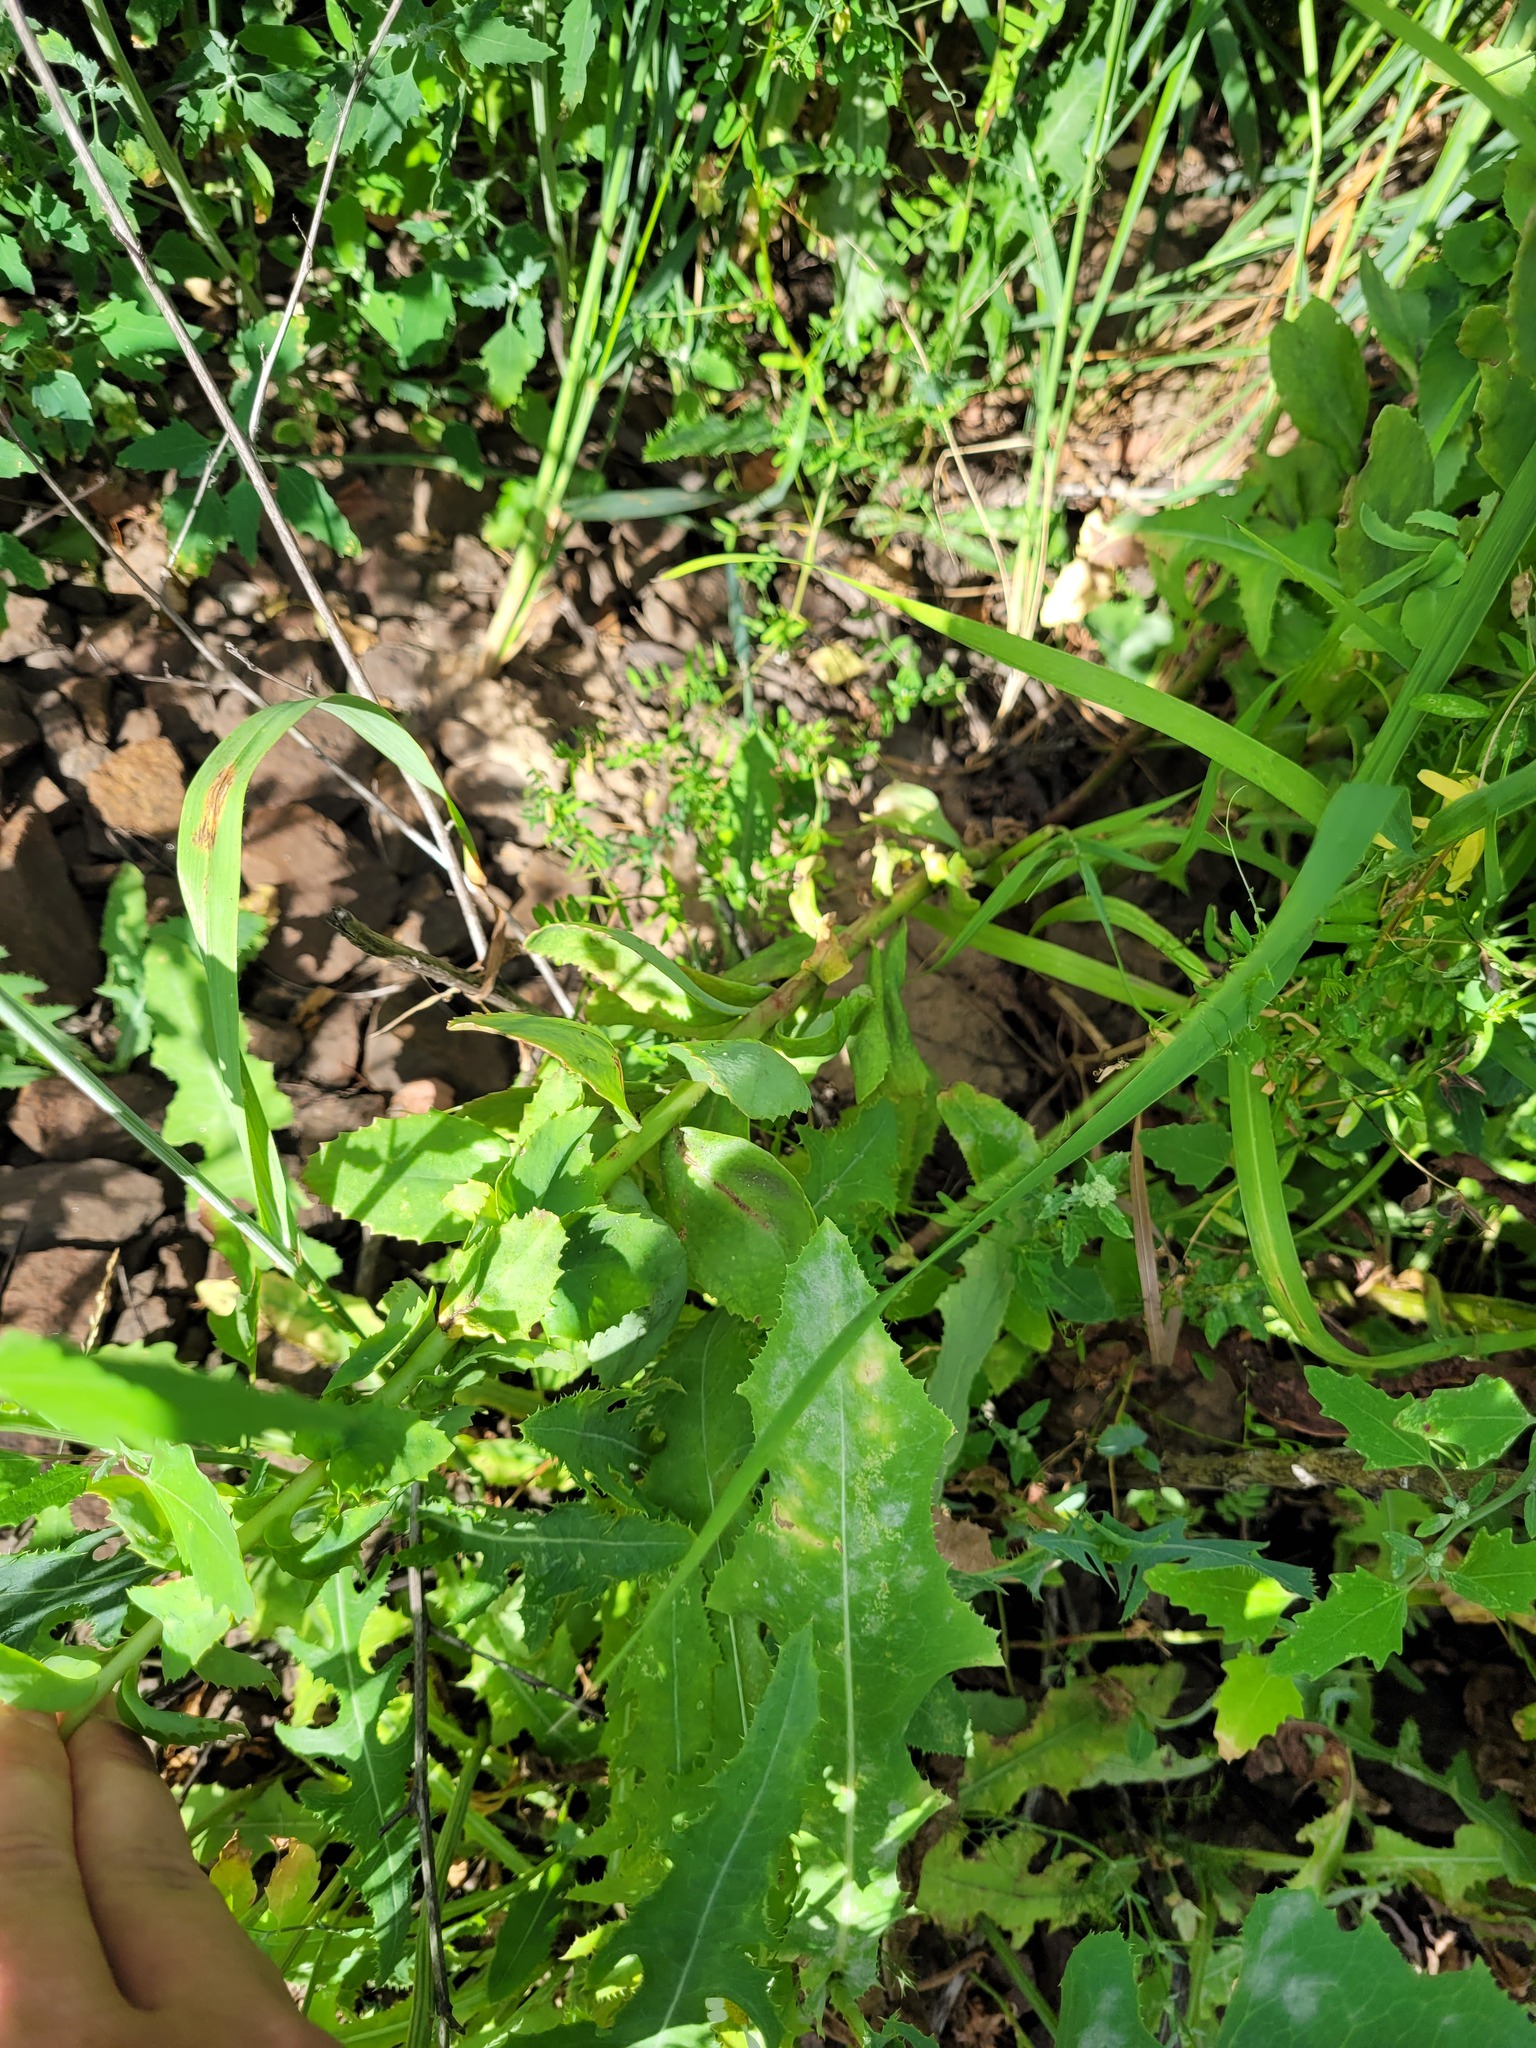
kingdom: Plantae
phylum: Tracheophyta
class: Magnoliopsida
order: Saxifragales
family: Crassulaceae
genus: Hylotelephium
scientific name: Hylotelephium telephium
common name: Live-forever
